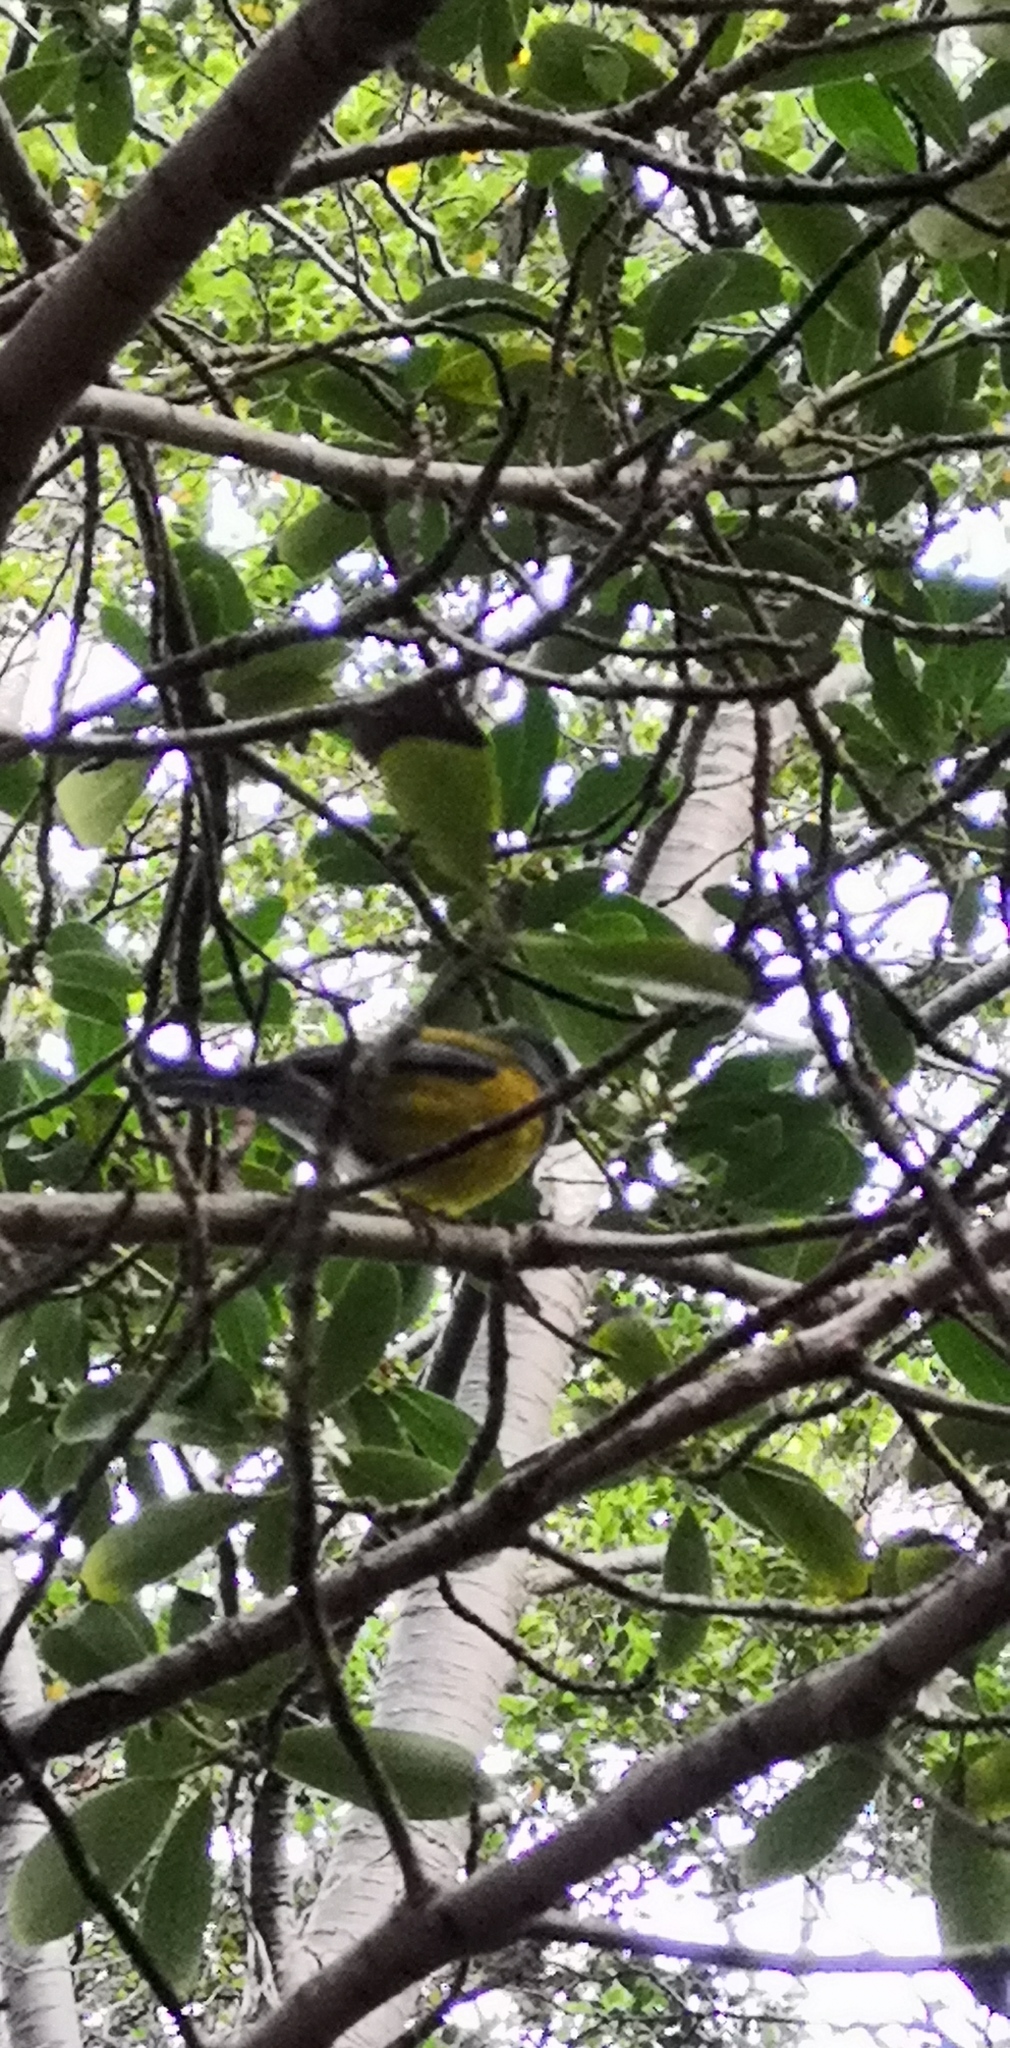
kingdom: Animalia
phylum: Chordata
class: Aves
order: Passeriformes
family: Thraupidae
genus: Phrygilus
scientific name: Phrygilus patagonicus
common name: Patagonian sierra finch
